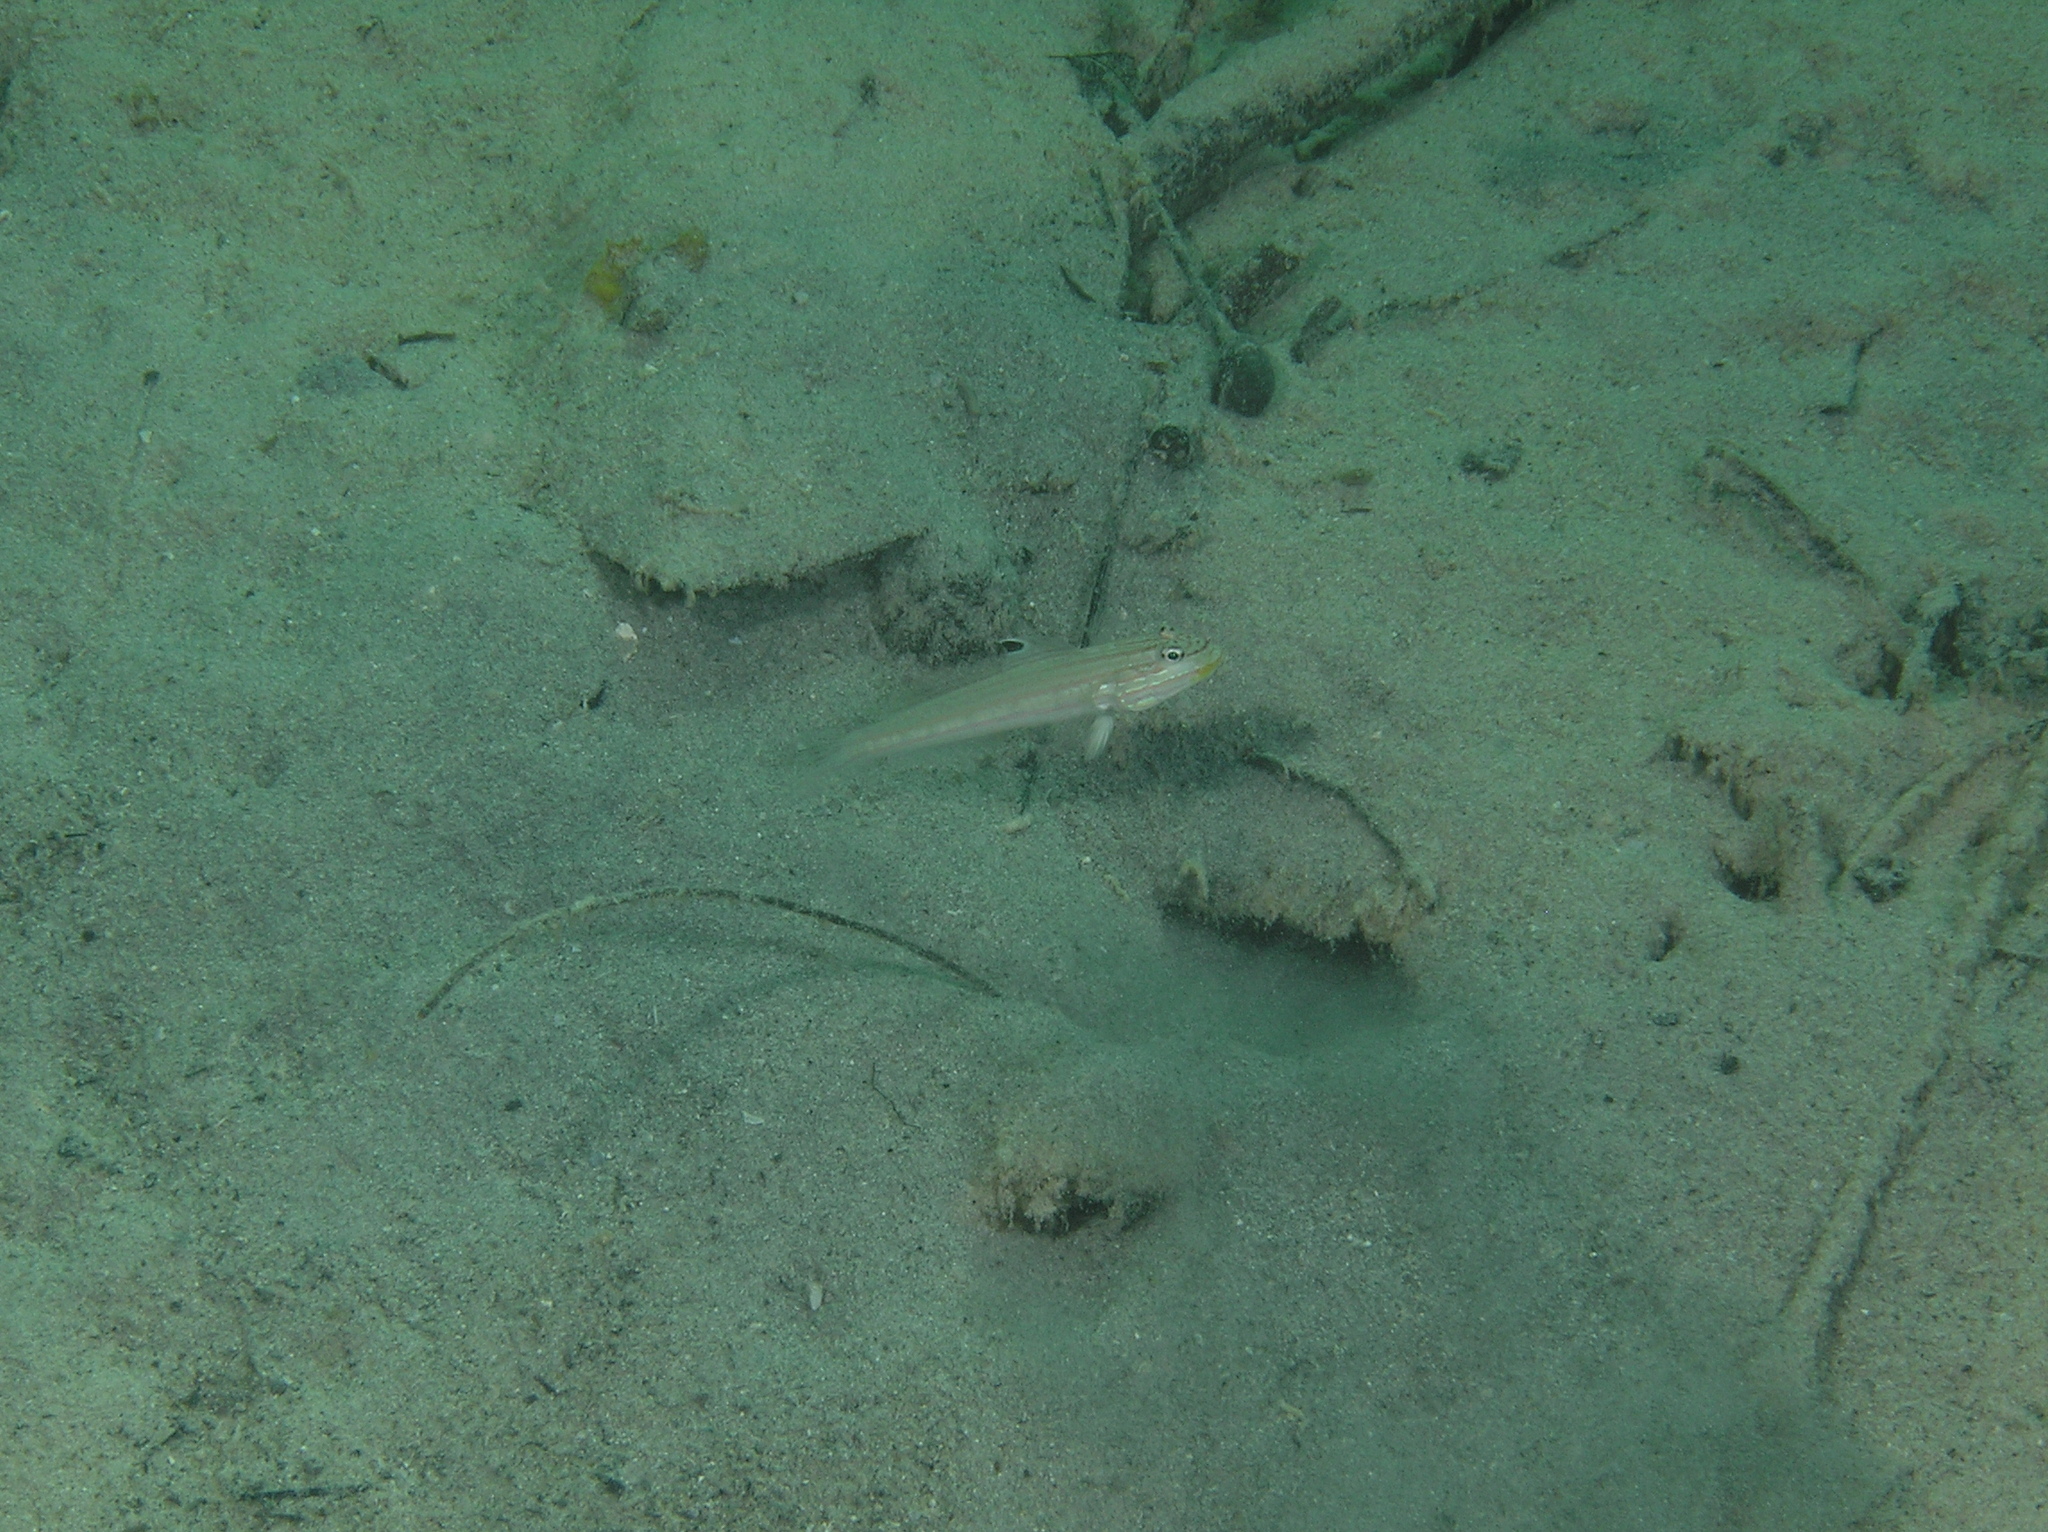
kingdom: Animalia
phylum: Chordata
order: Perciformes
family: Gobiidae
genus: Valenciennea
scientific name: Valenciennea muralis
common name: Mural goby
